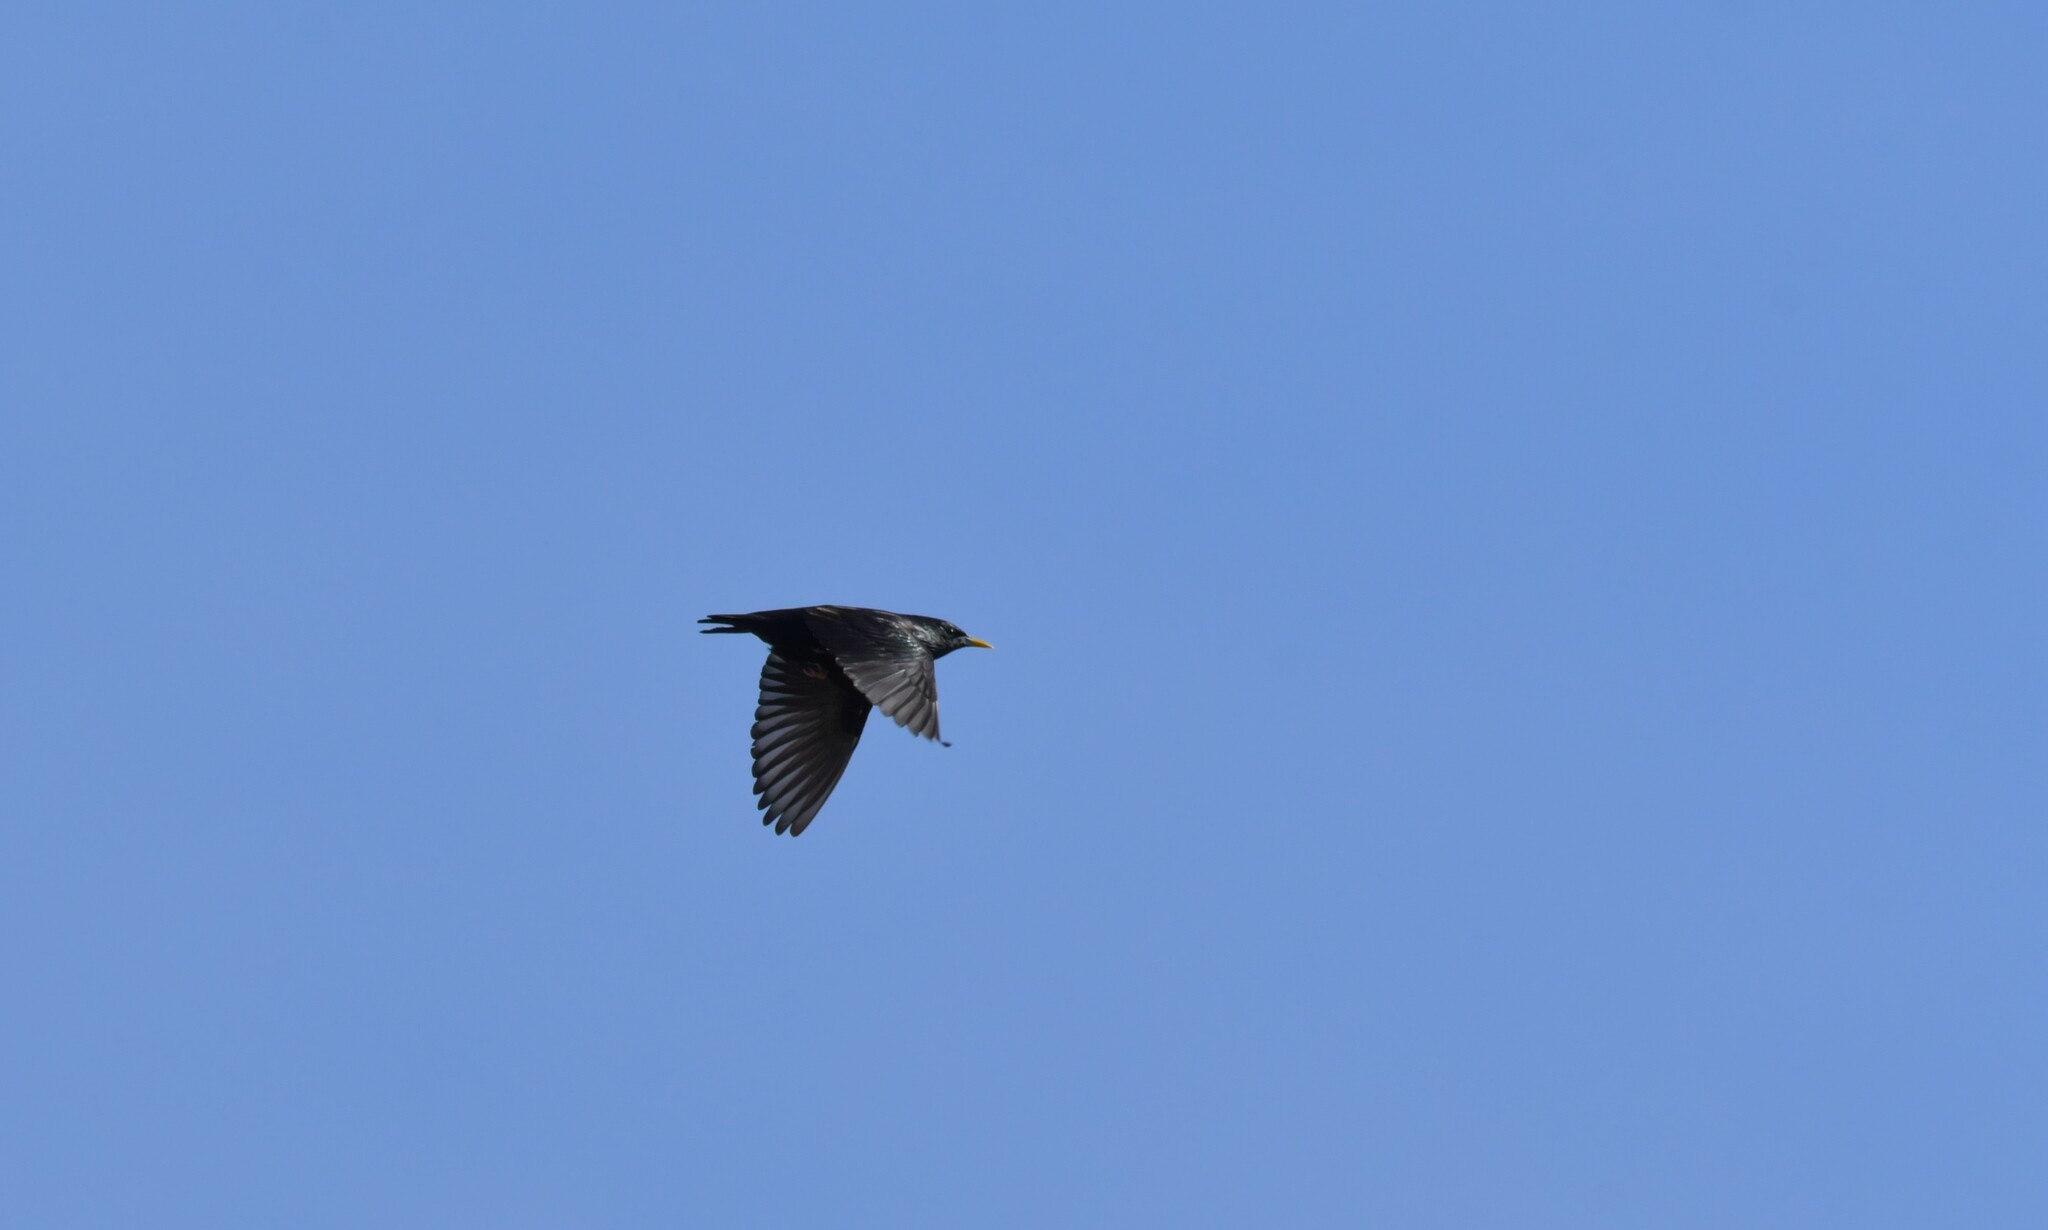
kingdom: Animalia
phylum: Chordata
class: Aves
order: Passeriformes
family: Sturnidae
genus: Sturnus
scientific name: Sturnus unicolor
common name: Spotless starling
